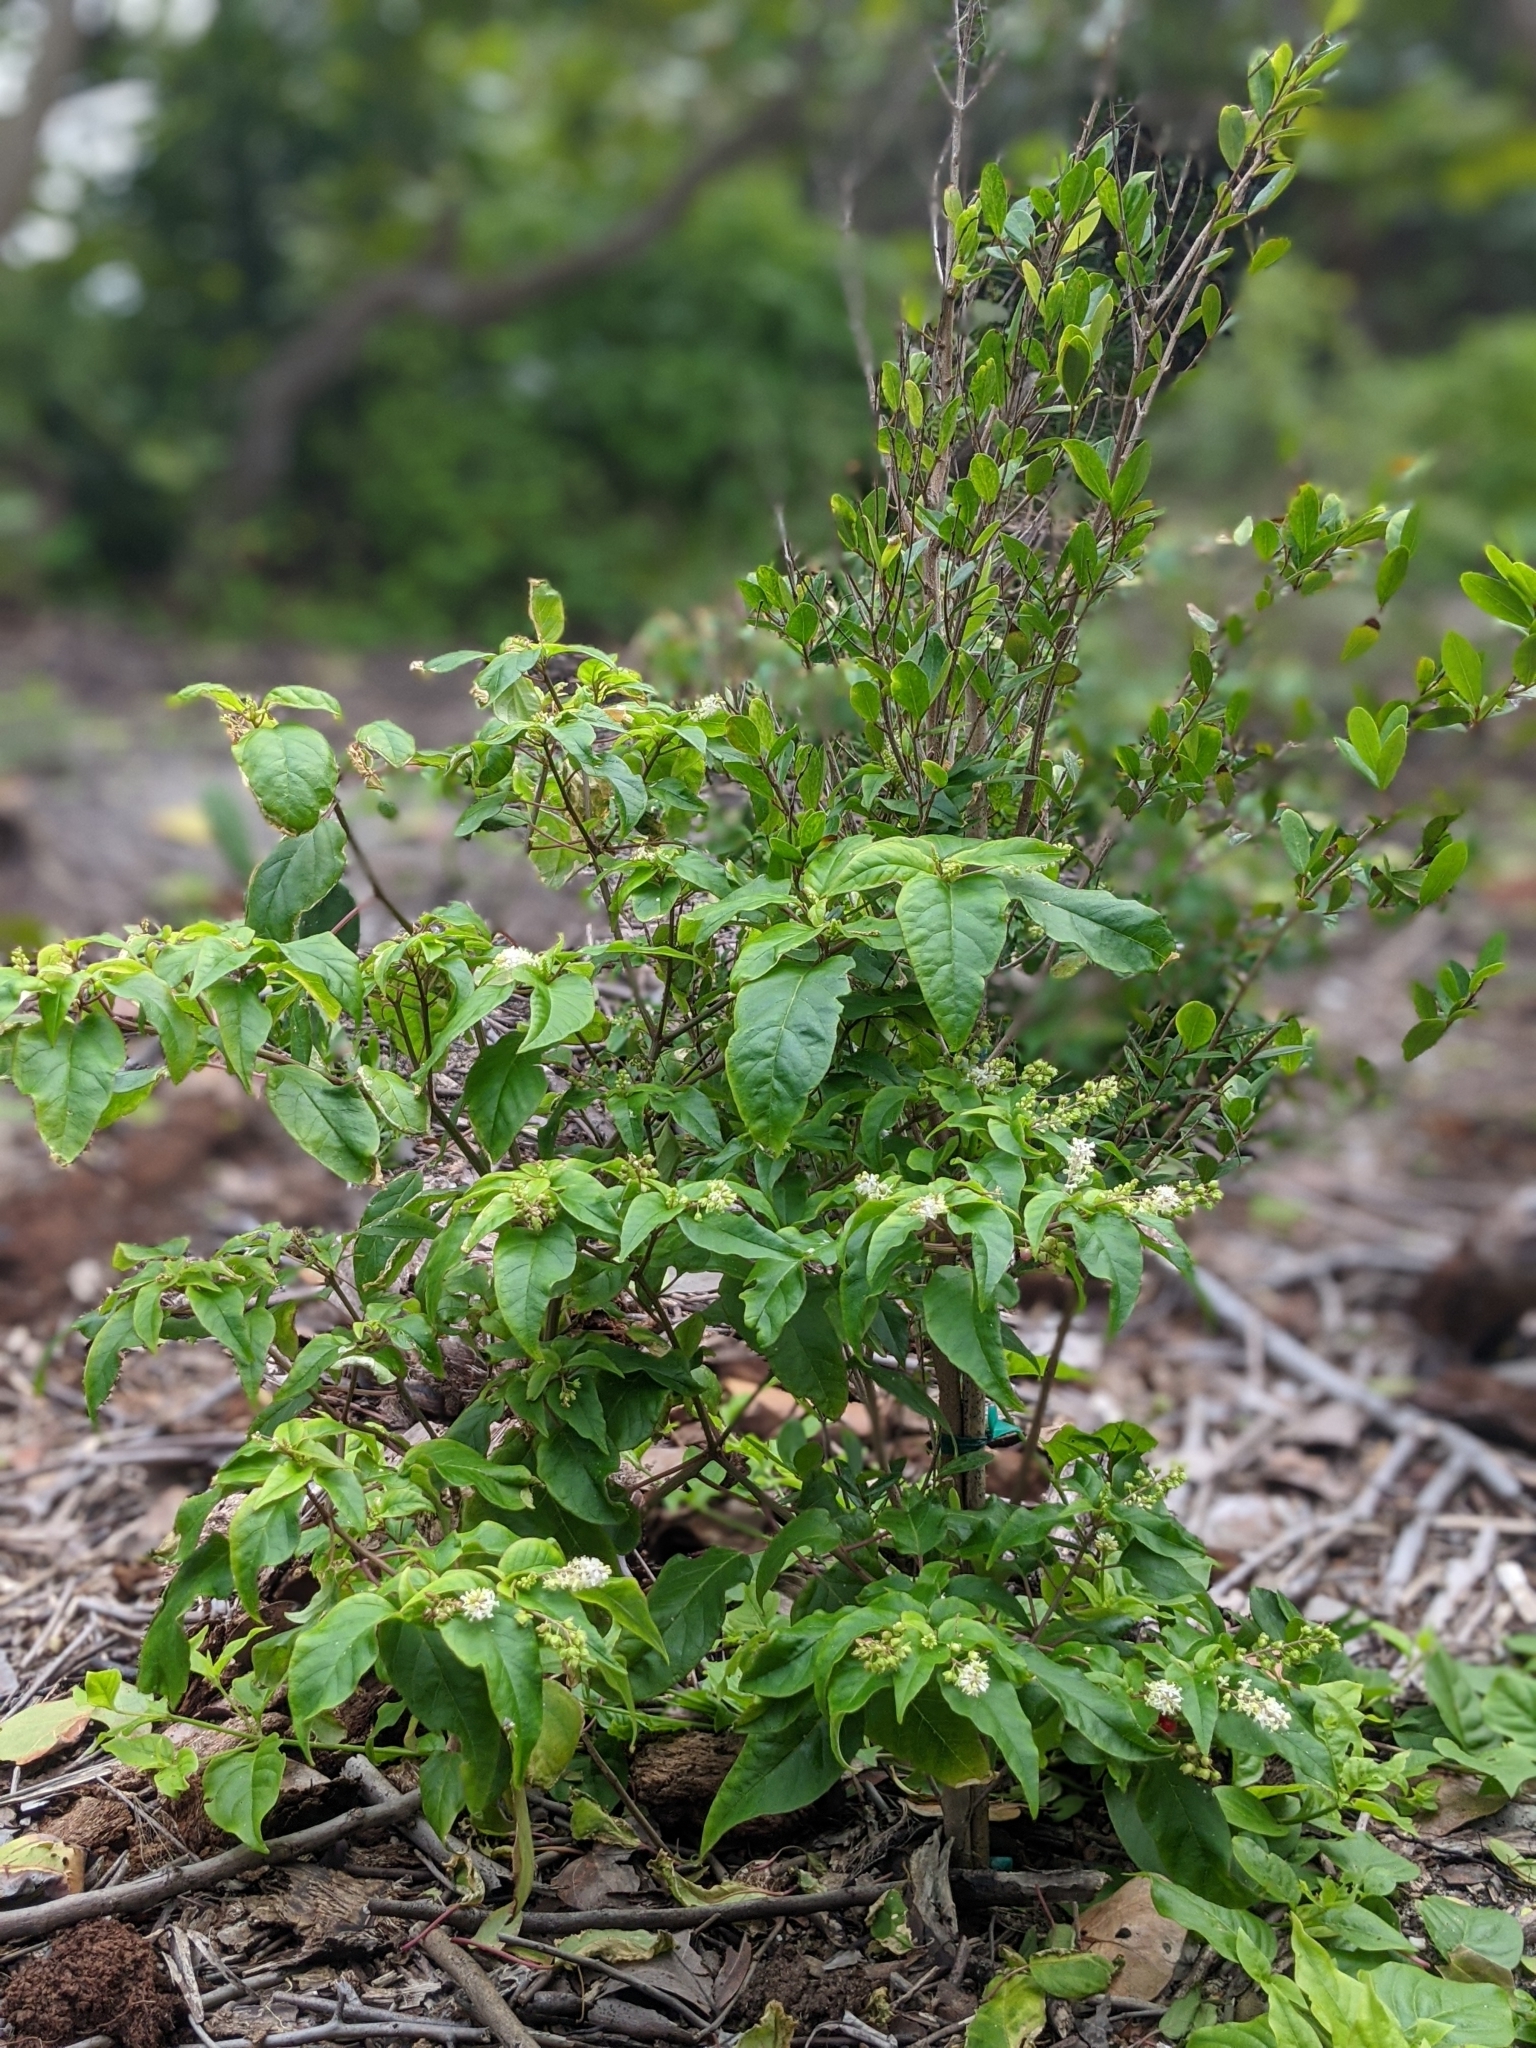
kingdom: Plantae
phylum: Tracheophyta
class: Magnoliopsida
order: Caryophyllales
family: Phytolaccaceae
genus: Rivina
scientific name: Rivina humilis
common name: Rougeplant
